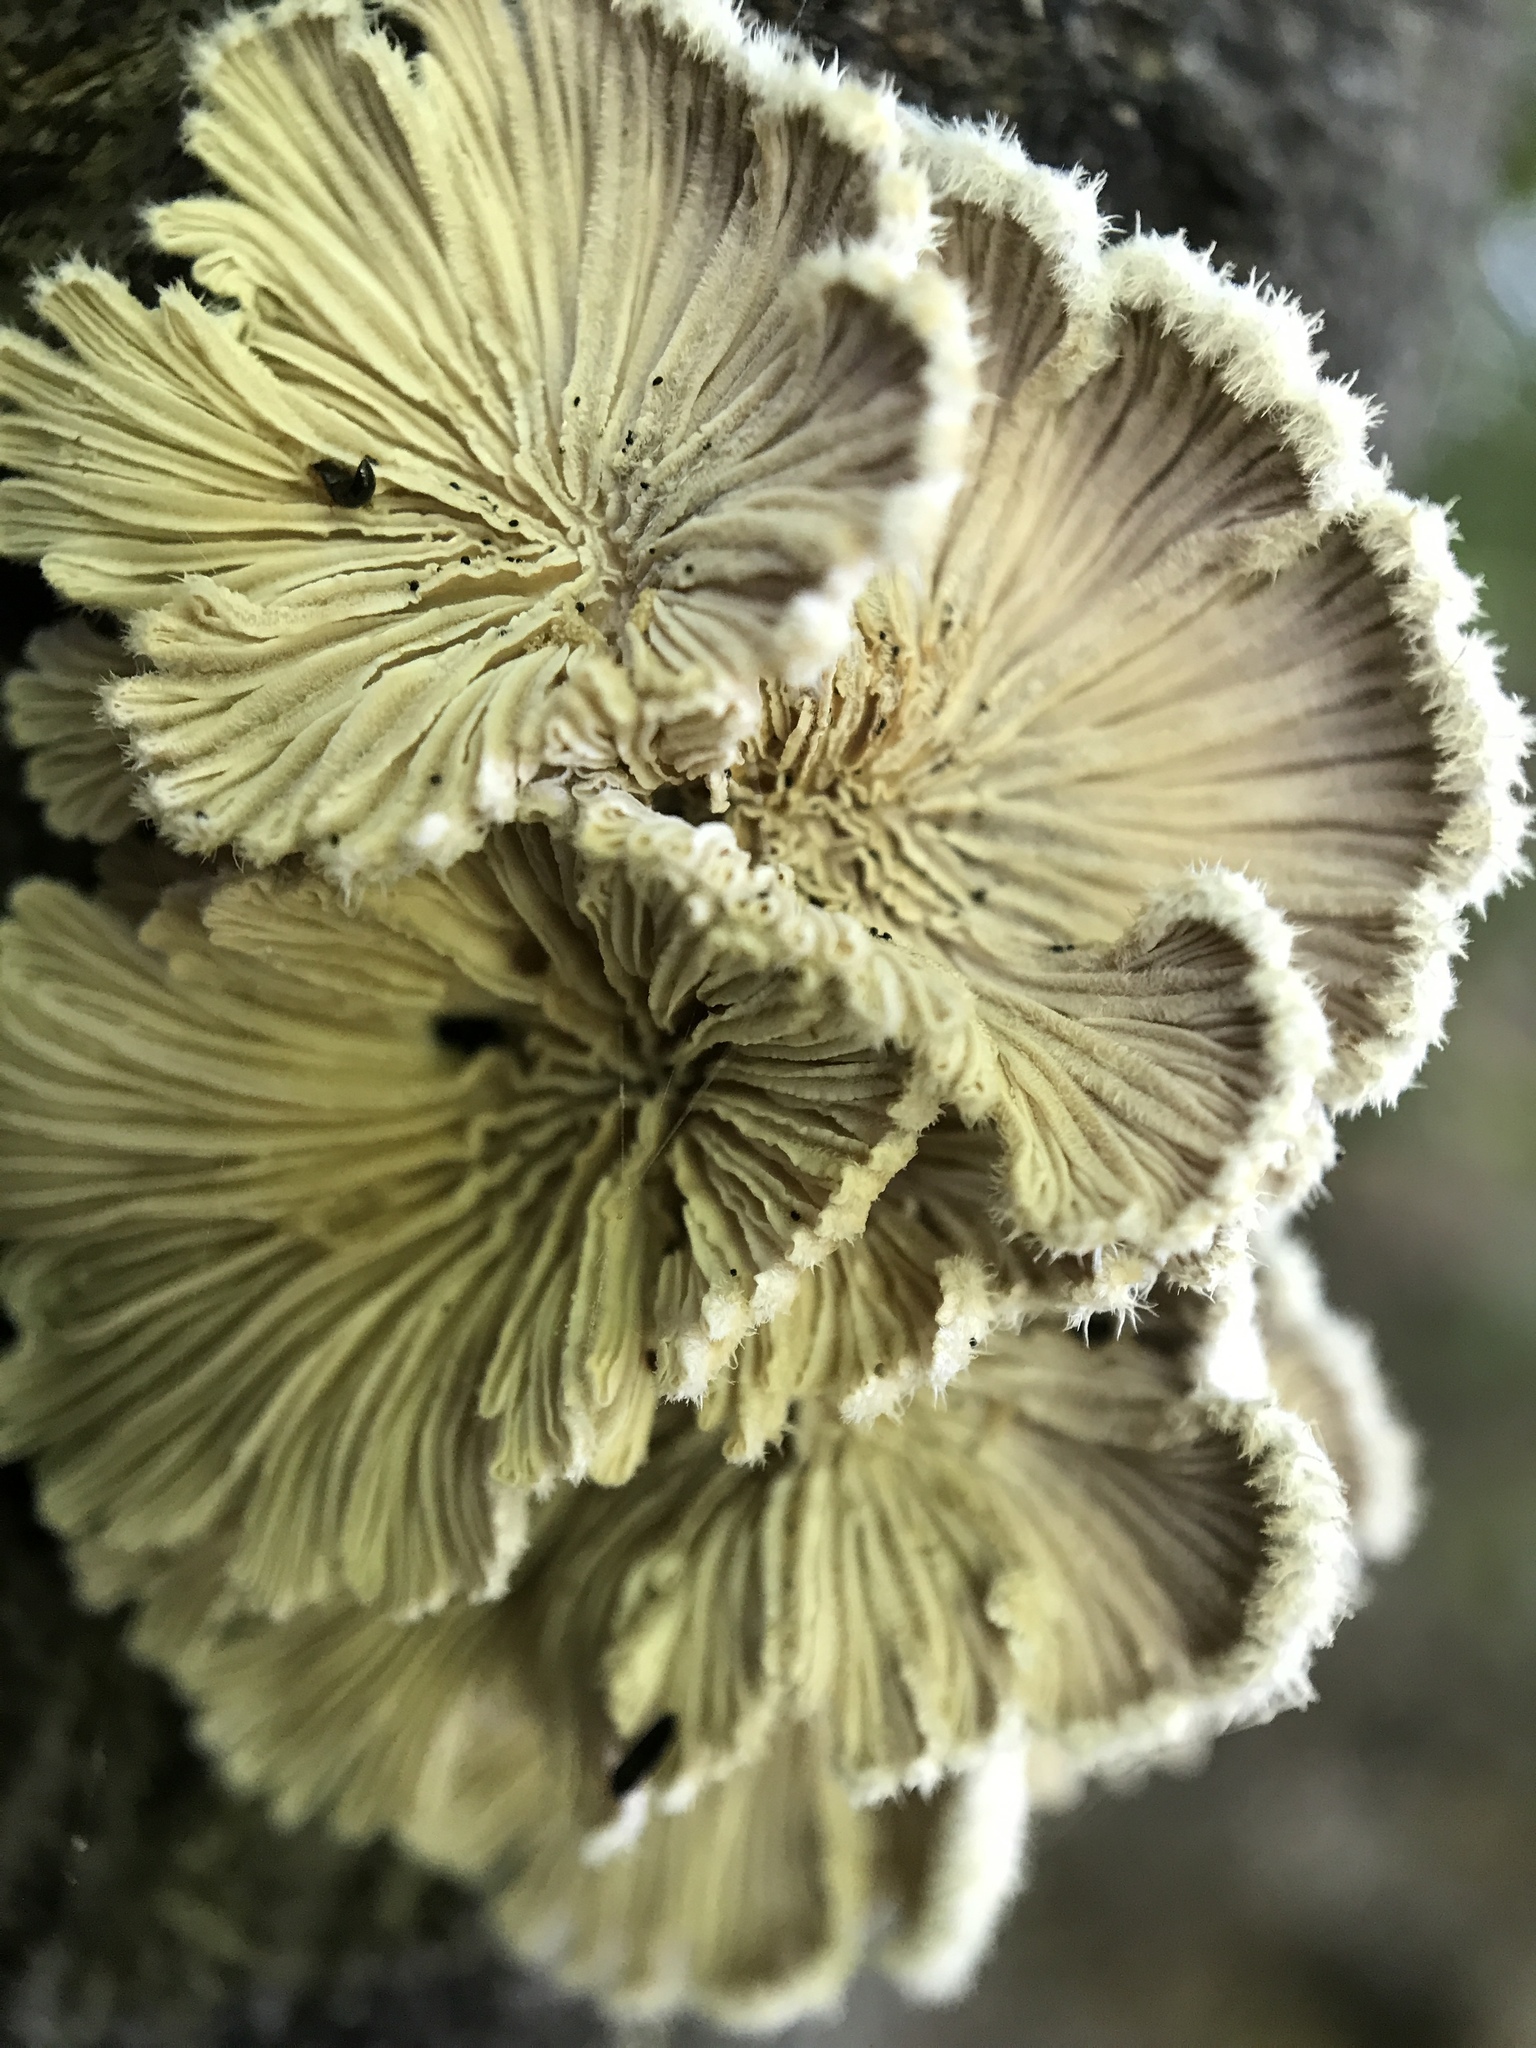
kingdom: Fungi
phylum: Basidiomycota
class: Agaricomycetes
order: Agaricales
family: Schizophyllaceae
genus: Schizophyllum
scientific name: Schizophyllum commune
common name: Common porecrust
